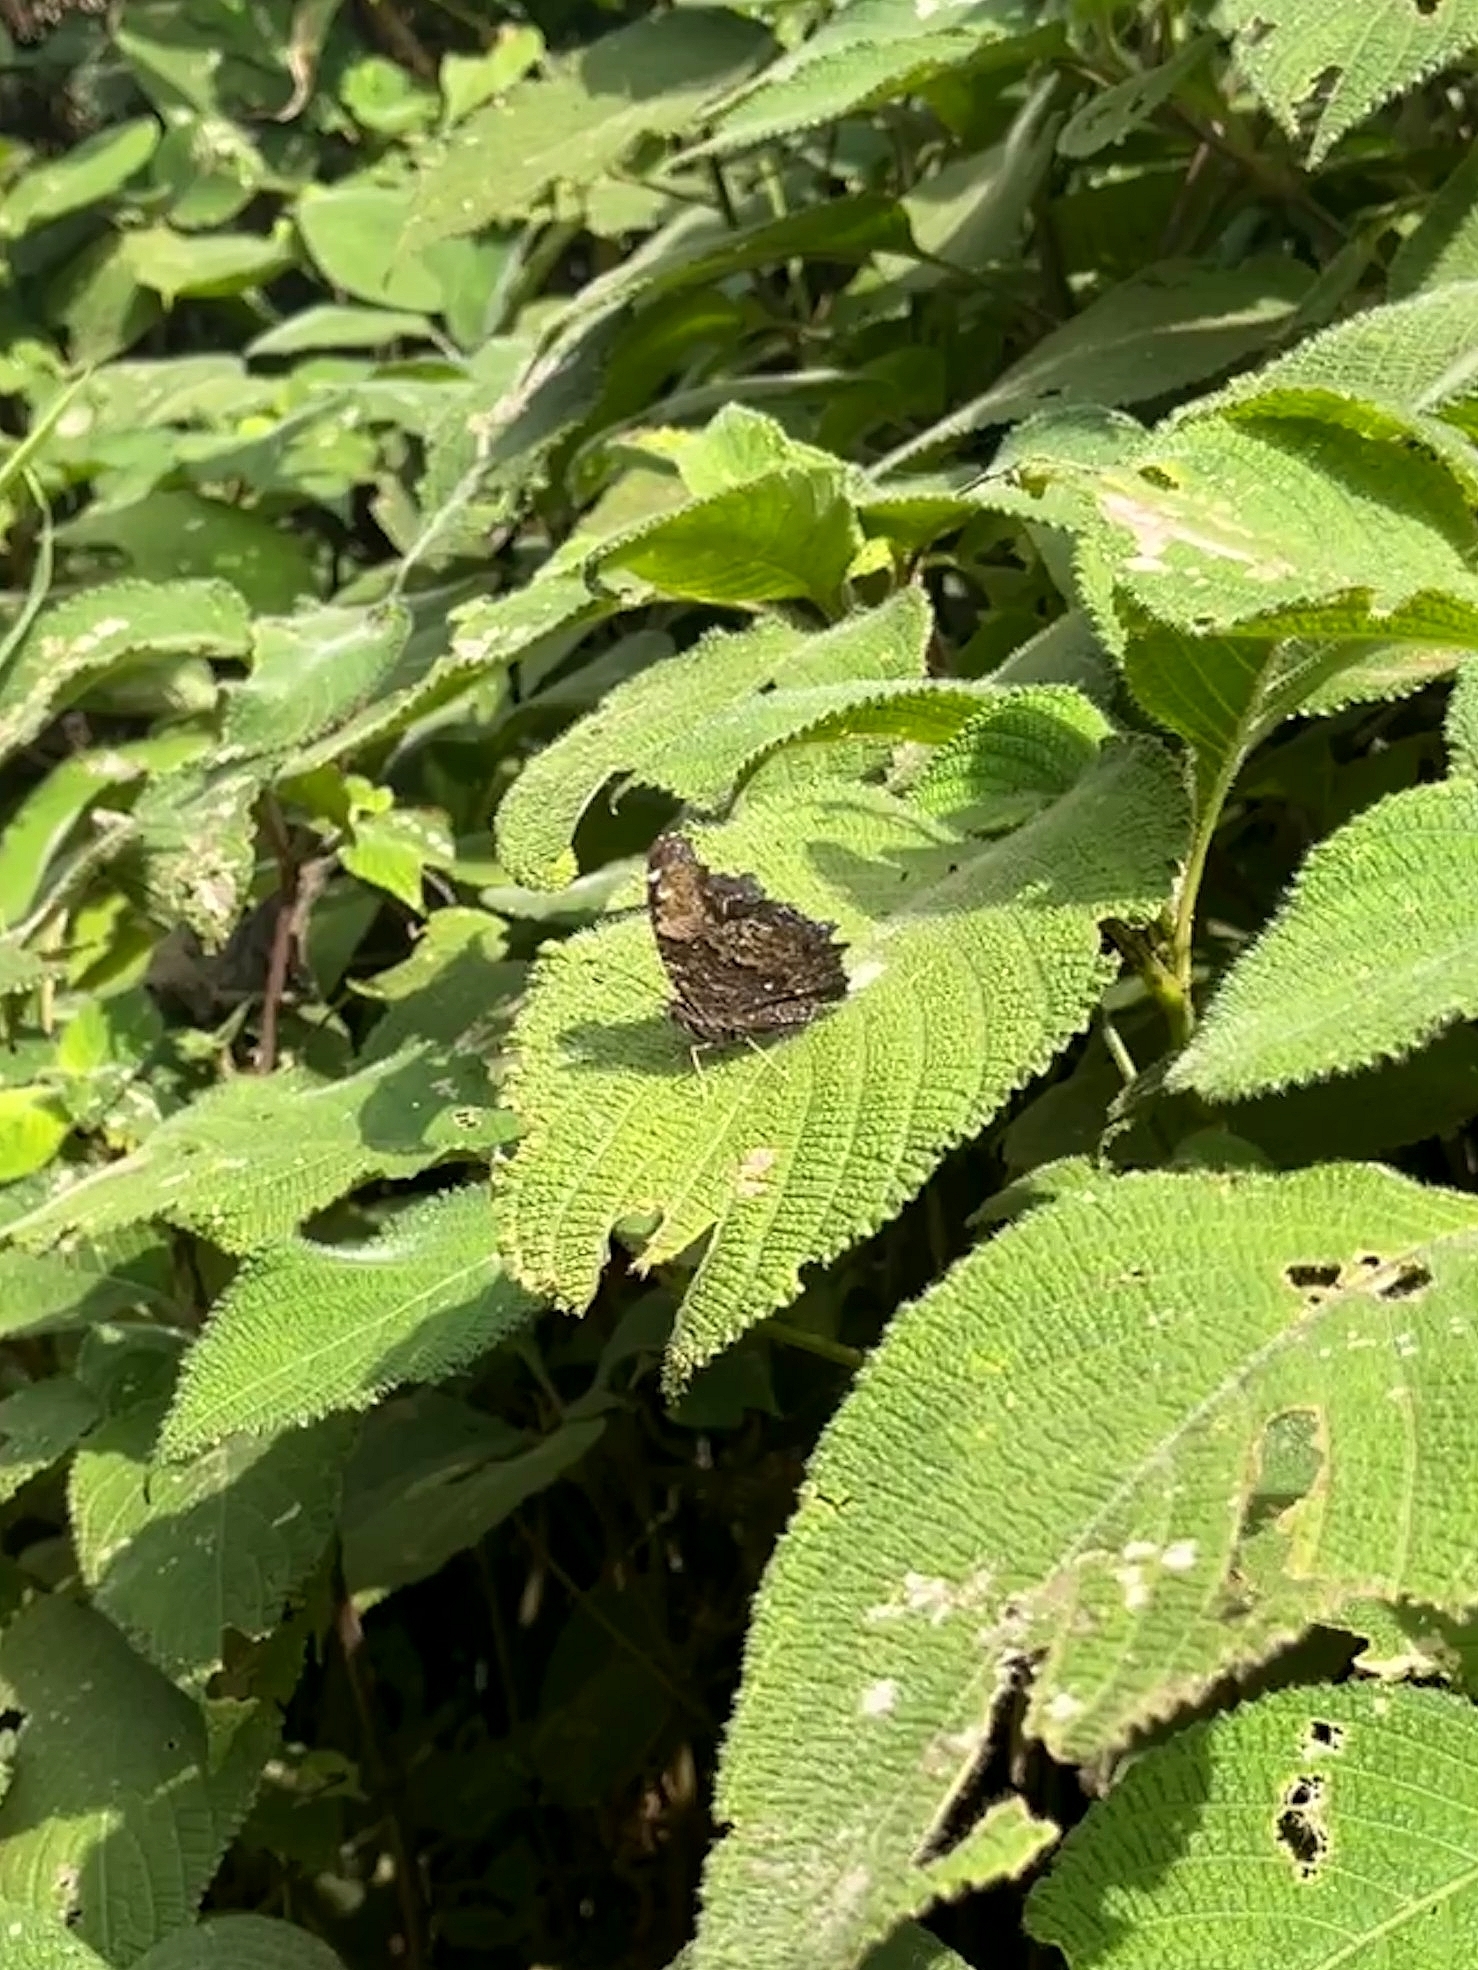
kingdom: Animalia
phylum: Arthropoda
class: Insecta
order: Lepidoptera
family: Nymphalidae
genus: Vanessa
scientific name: Vanessa Kaniska canace
